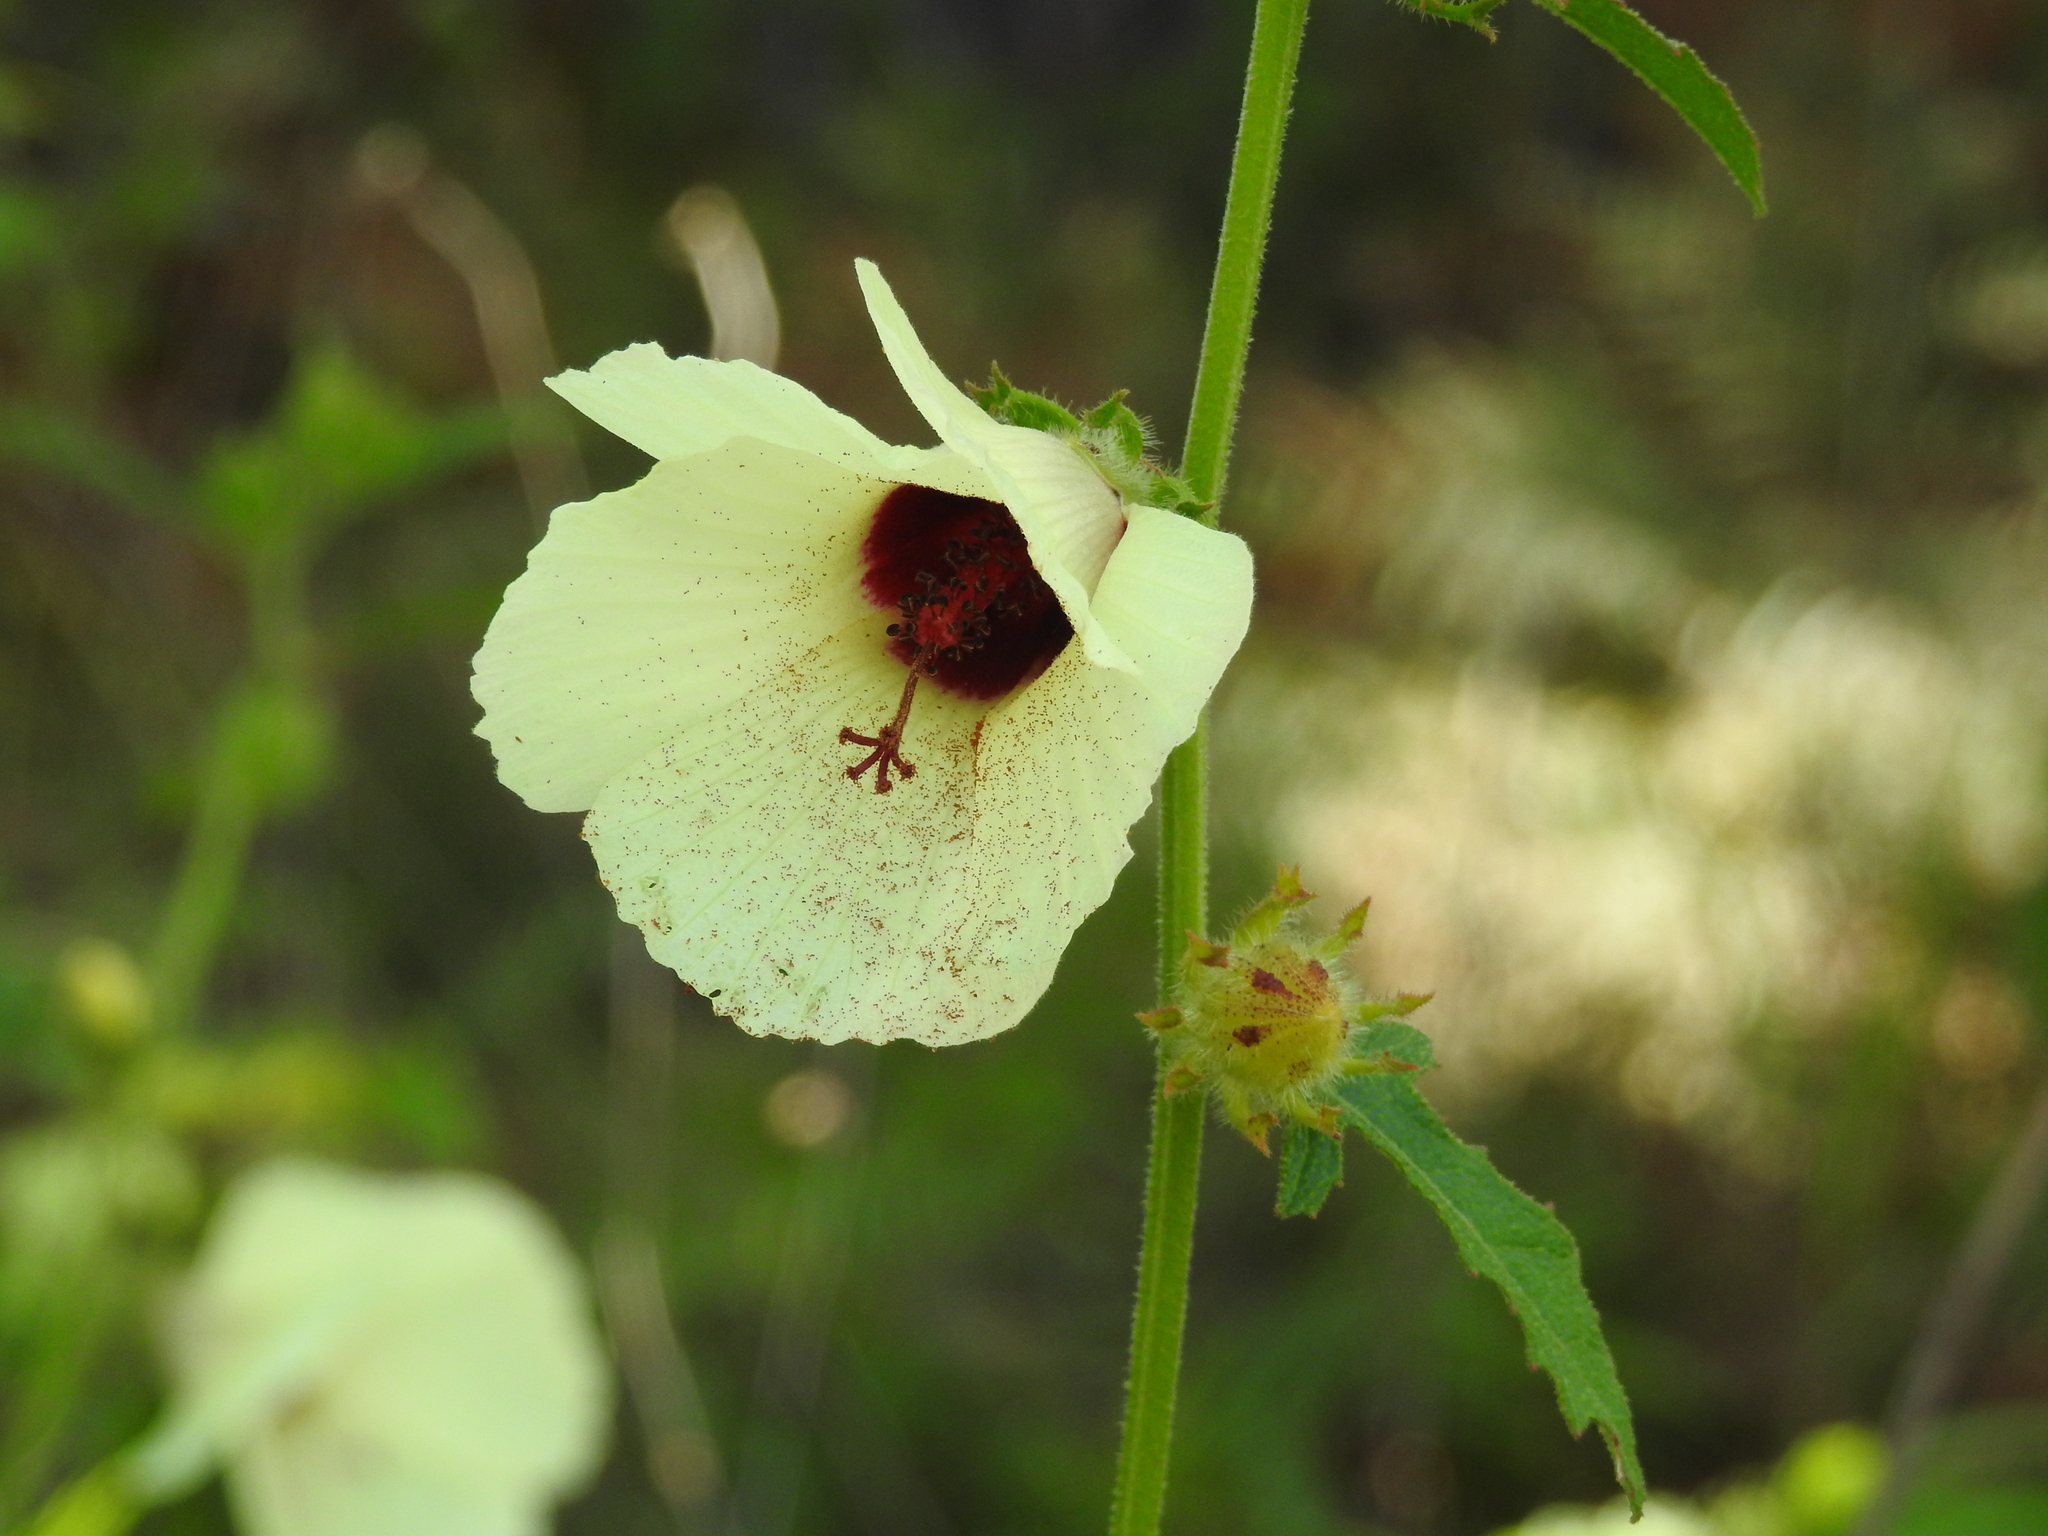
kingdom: Plantae
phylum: Tracheophyta
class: Magnoliopsida
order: Malvales
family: Malvaceae
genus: Hibiscus
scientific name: Hibiscus aculeatus
